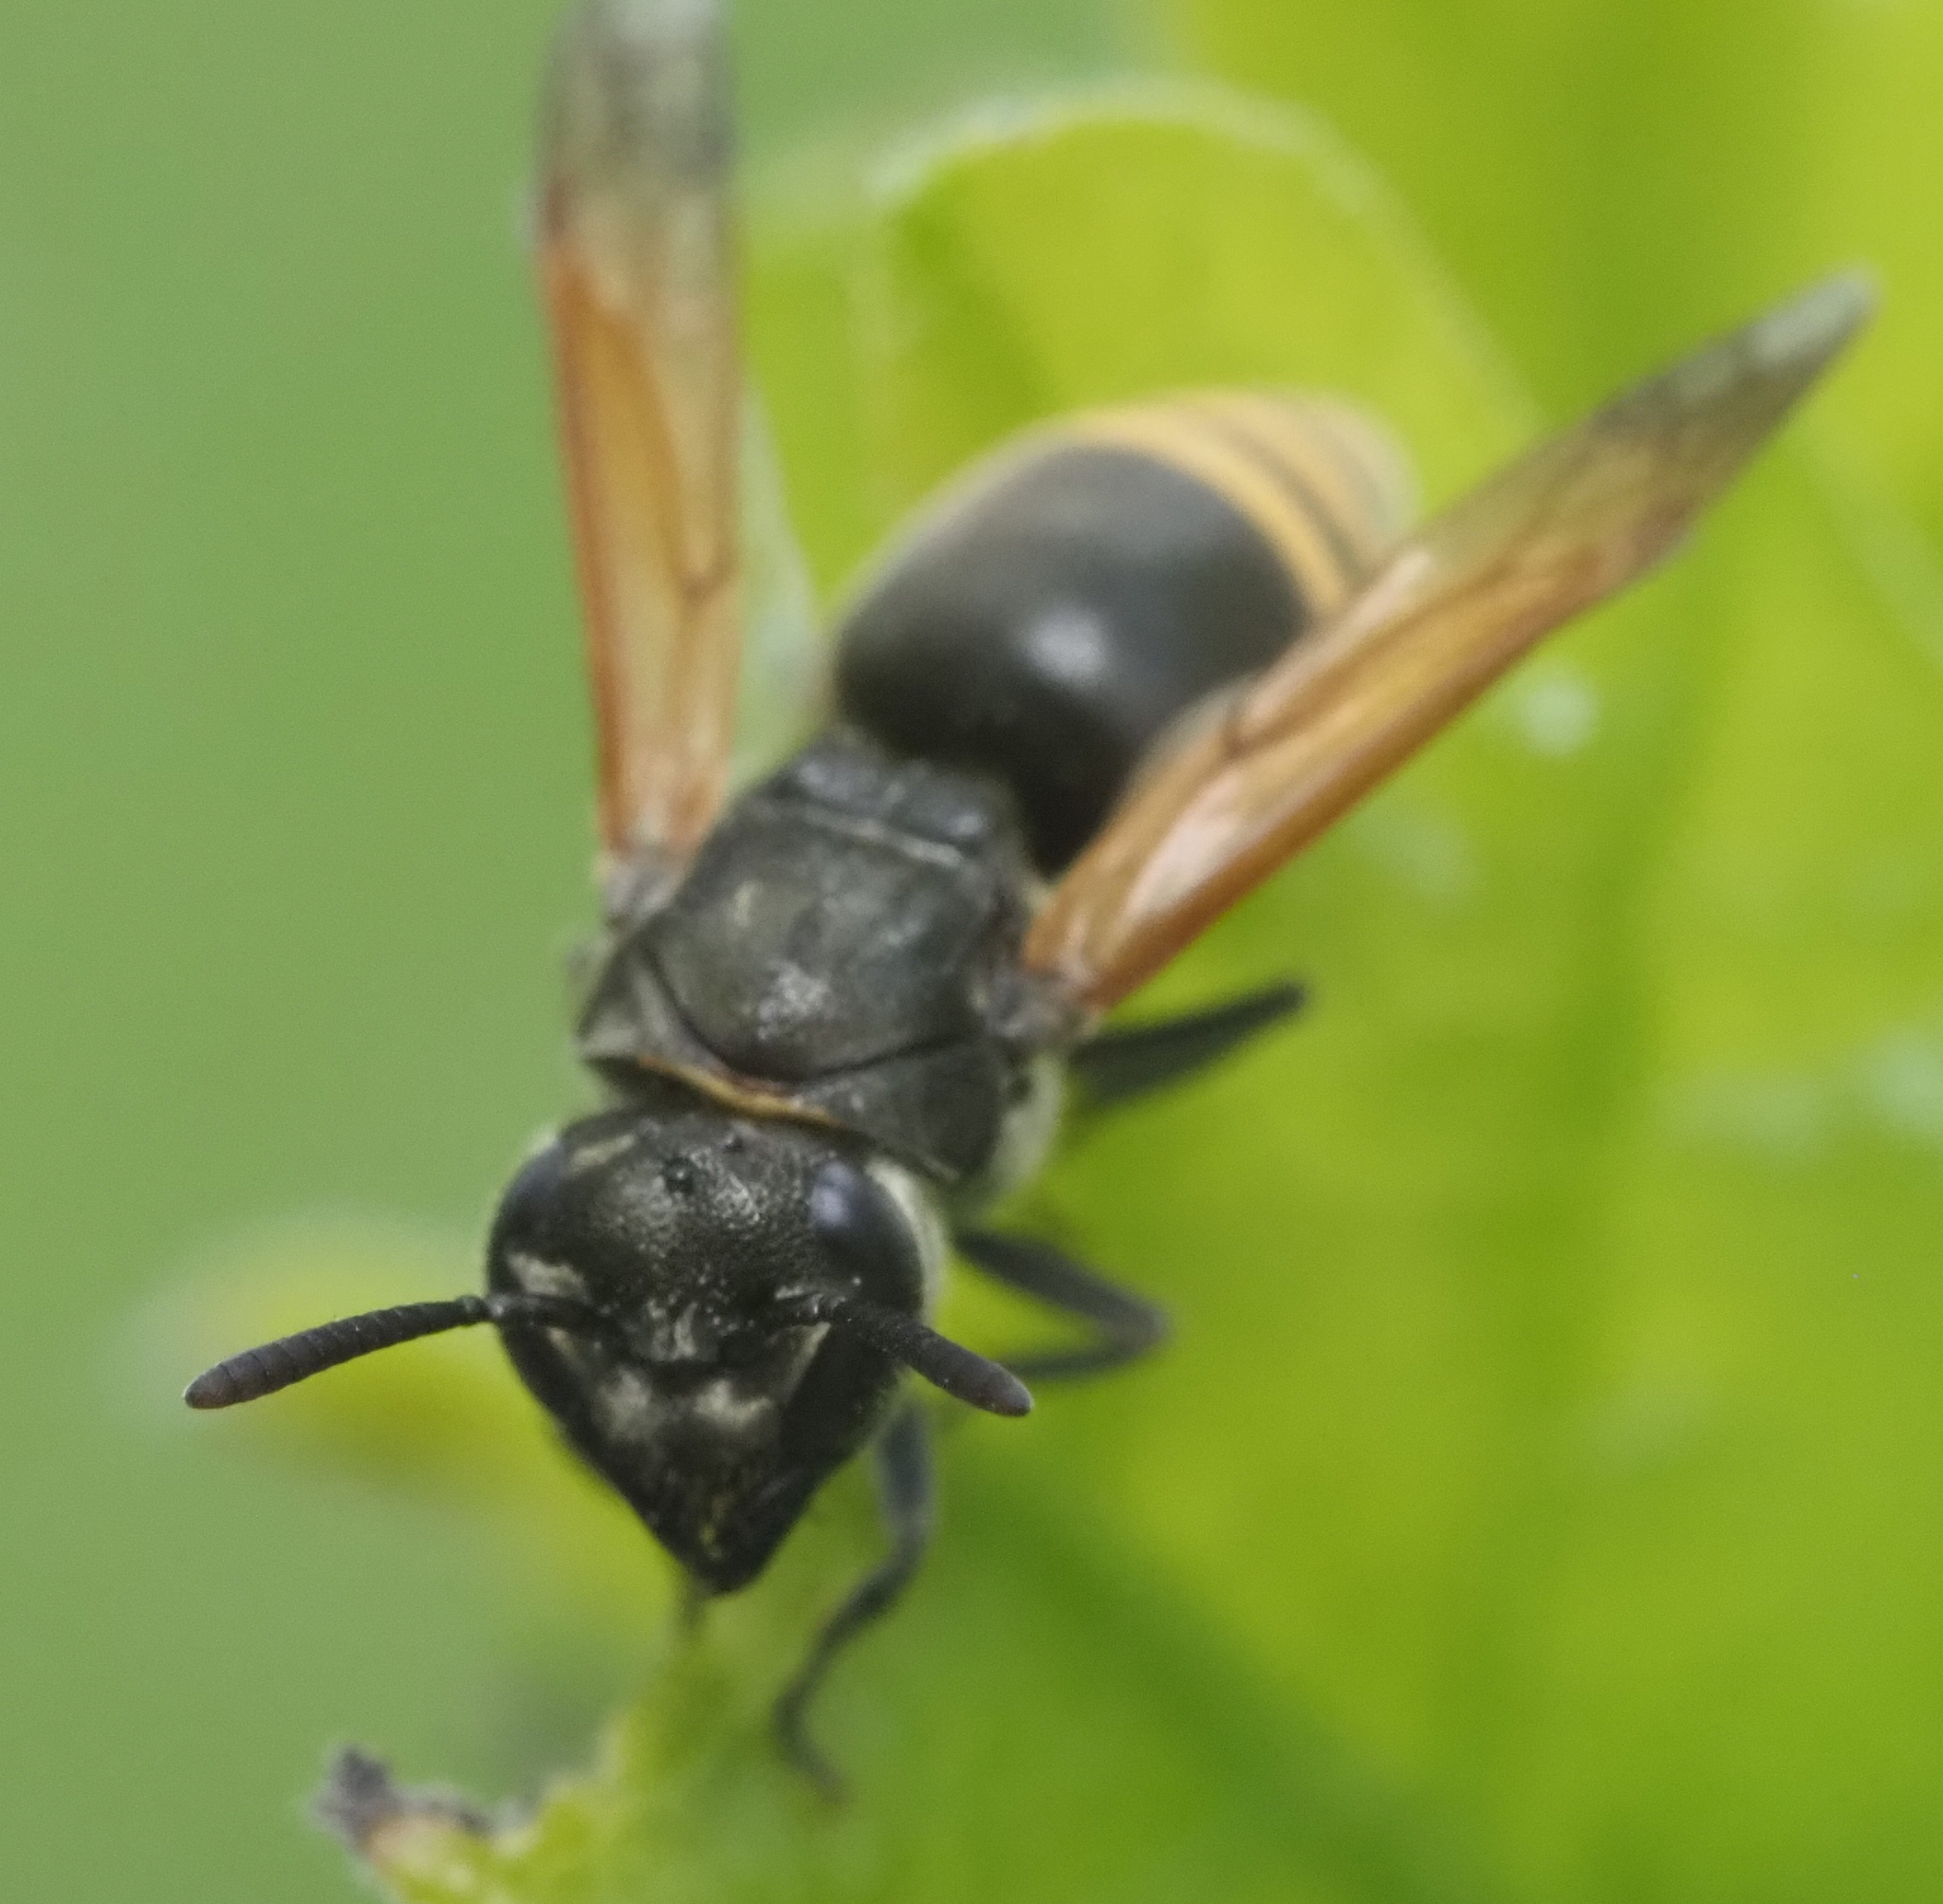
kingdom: Animalia
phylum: Arthropoda
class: Insecta
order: Hymenoptera
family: Vespidae
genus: Brachygastra
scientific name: Brachygastra mellifica
